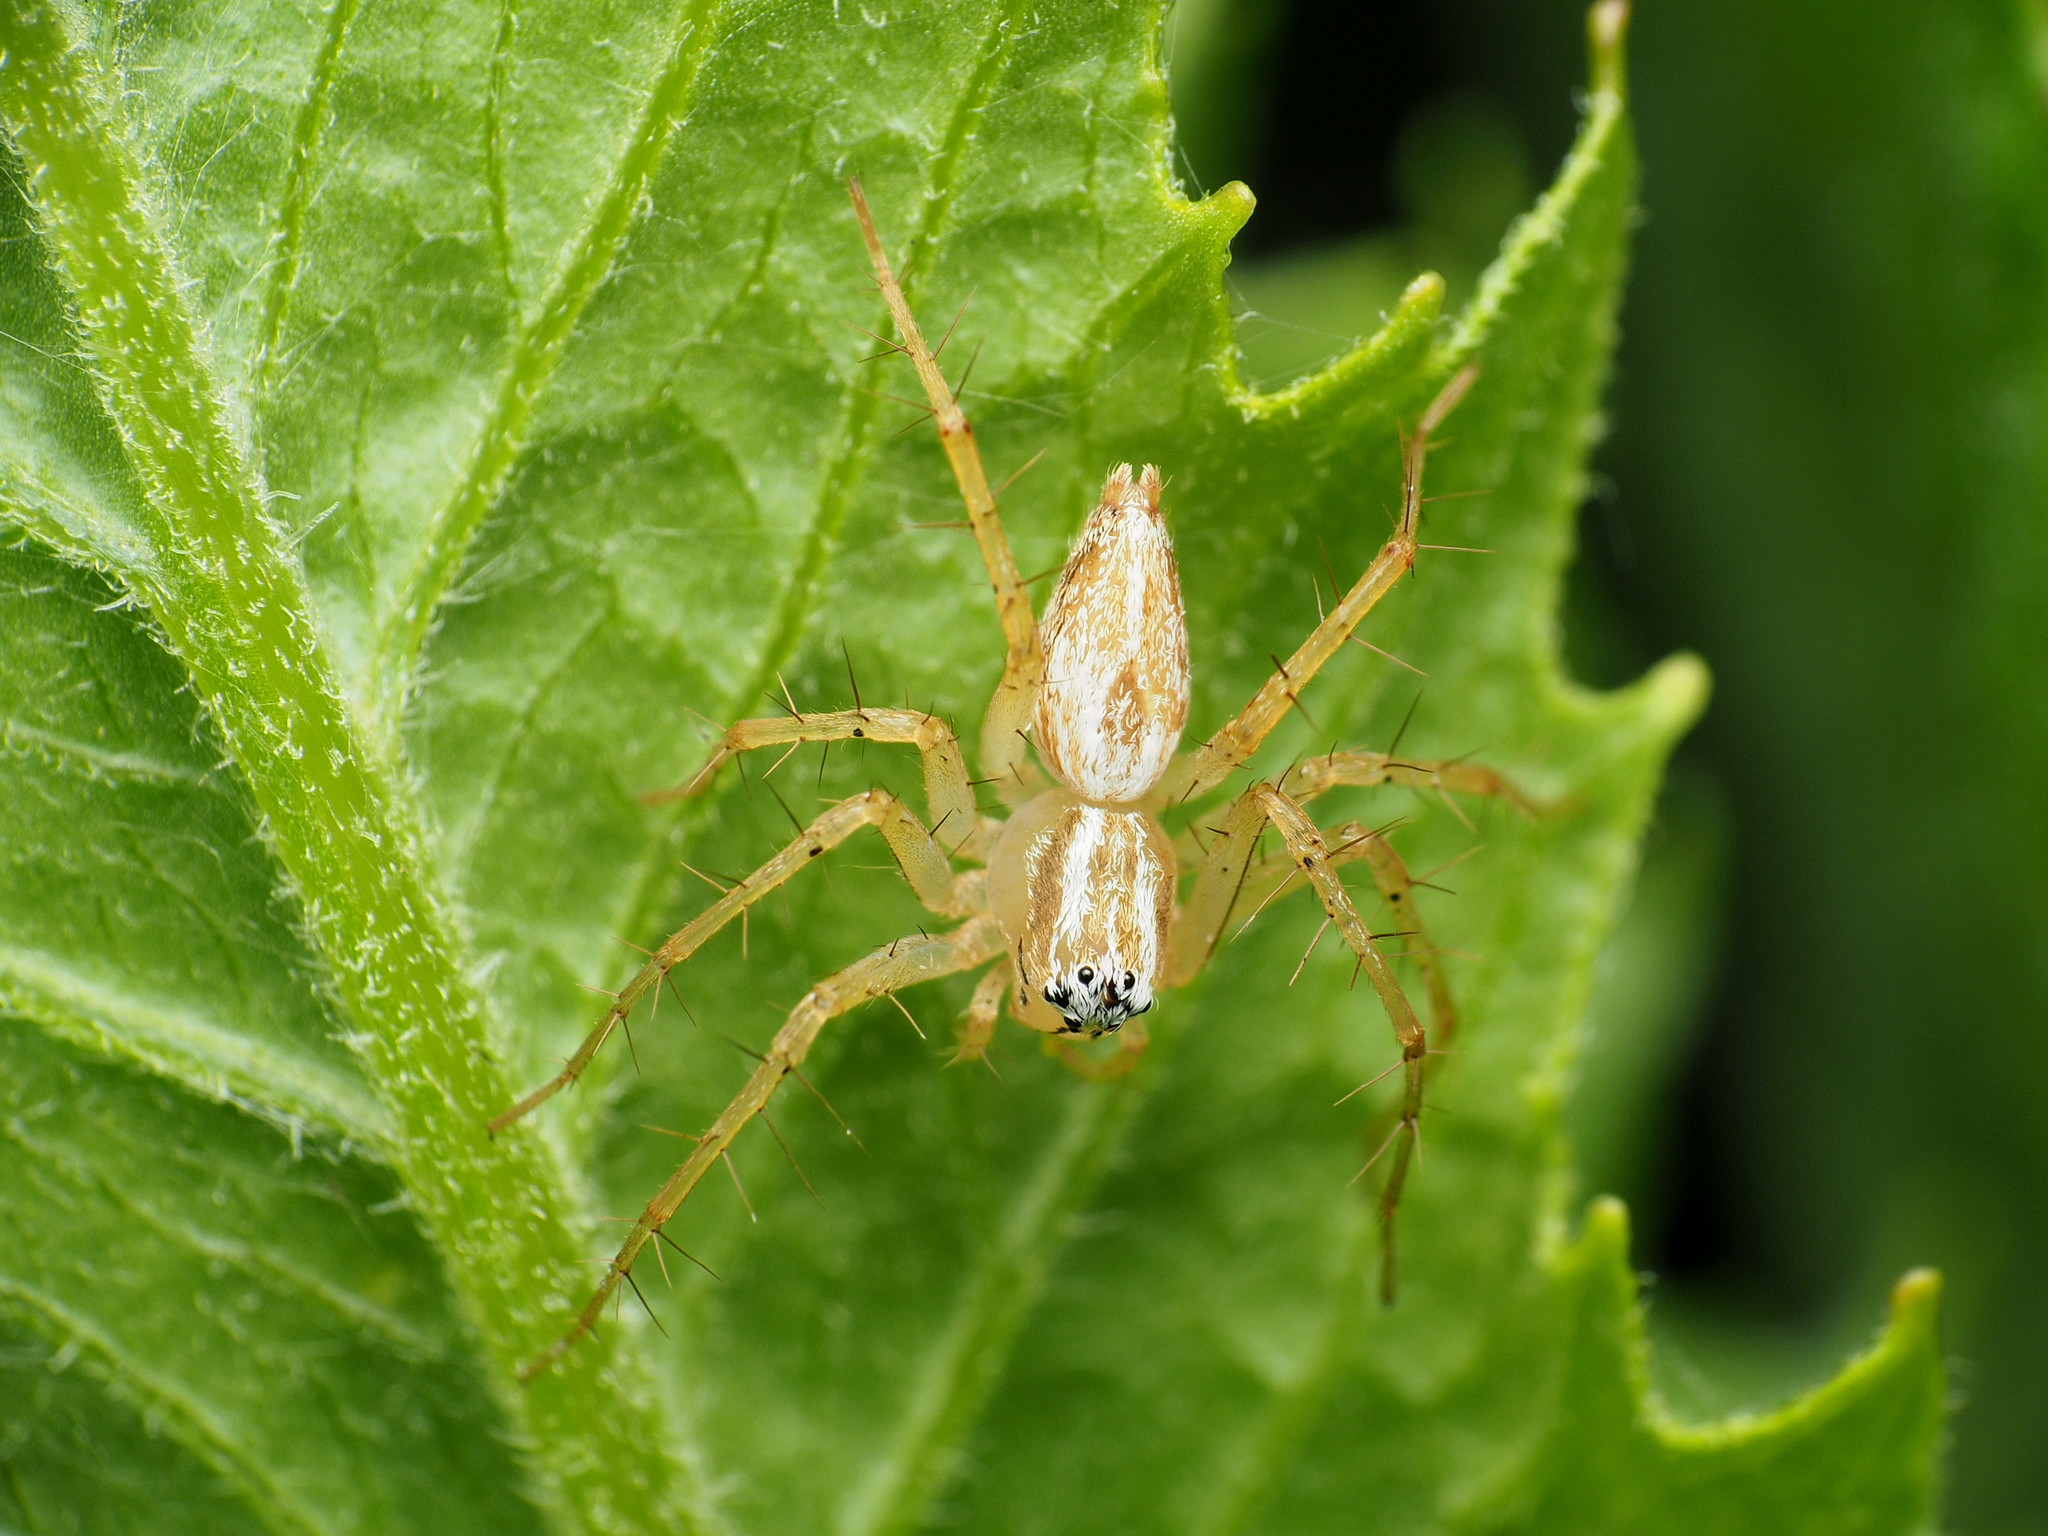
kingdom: Animalia
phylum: Arthropoda
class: Arachnida
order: Araneae
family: Oxyopidae
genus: Oxyopes
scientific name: Oxyopes salticus
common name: Lynx spiders
